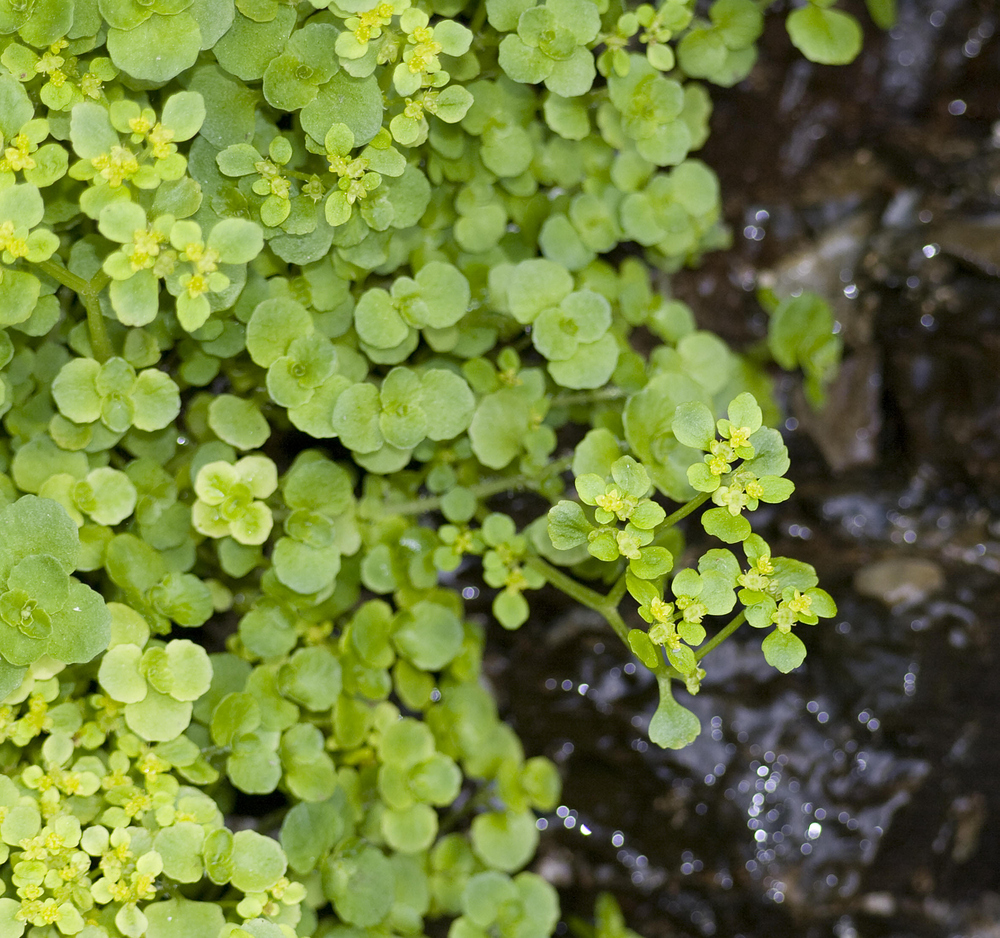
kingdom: Plantae
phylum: Tracheophyta
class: Magnoliopsida
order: Saxifragales
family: Saxifragaceae
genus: Chrysosplenium
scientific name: Chrysosplenium oppositifolium
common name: Opposite-leaved golden-saxifrage
